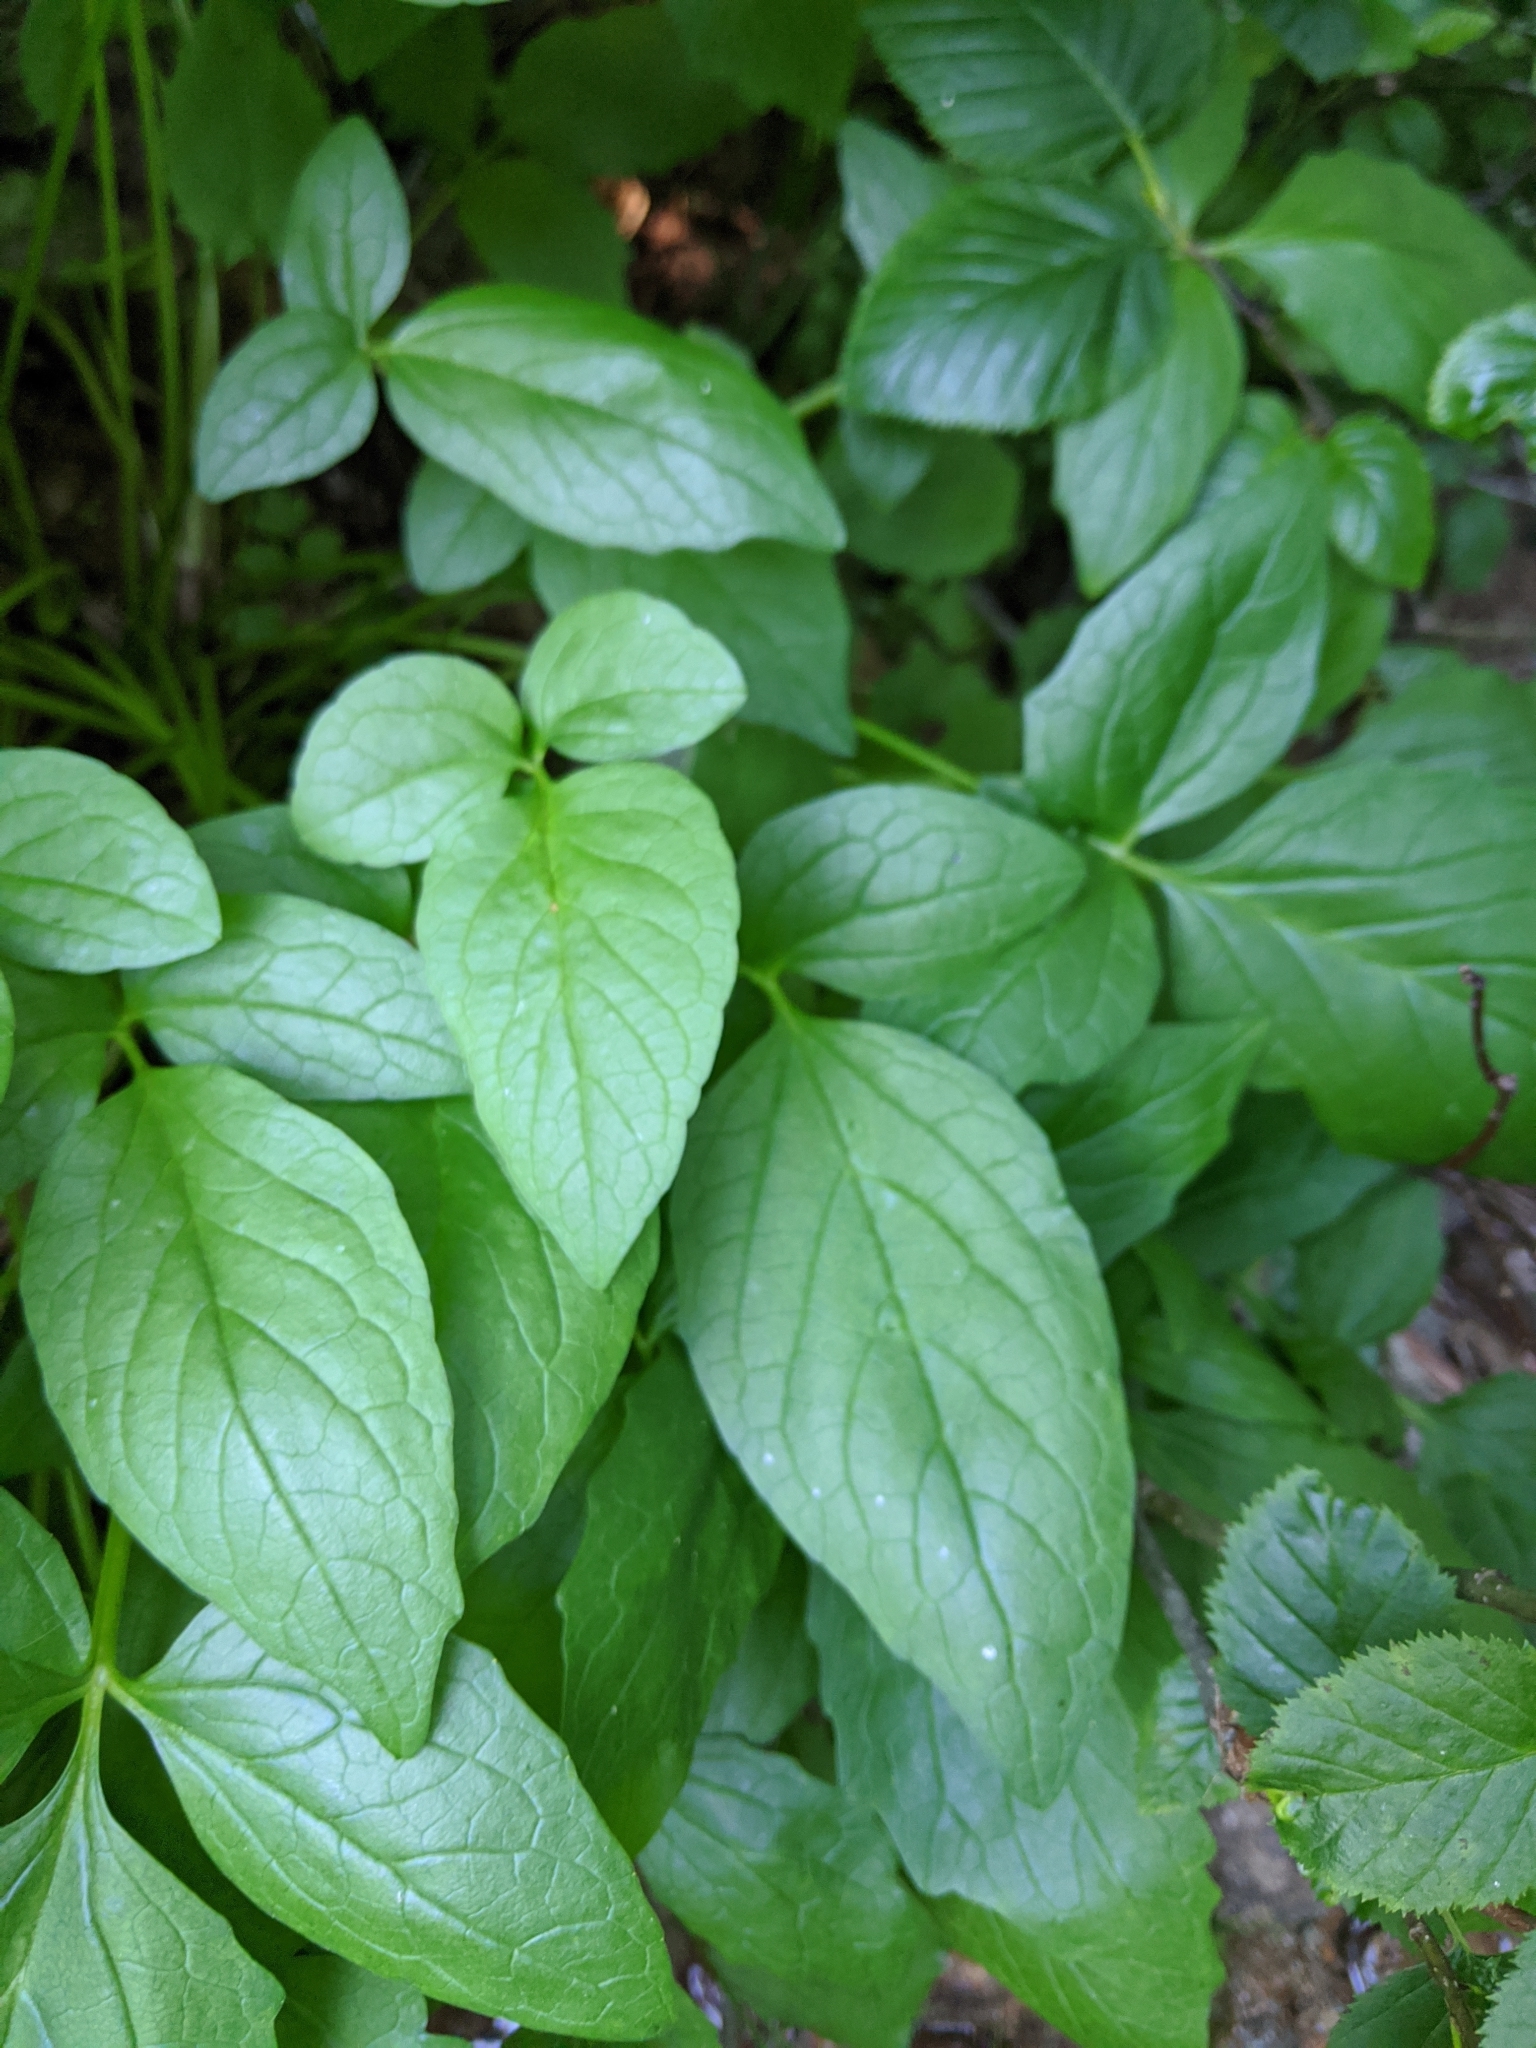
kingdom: Plantae
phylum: Tracheophyta
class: Magnoliopsida
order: Dipsacales
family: Caprifoliaceae
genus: Valeriana
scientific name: Valeriana sitchensis
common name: Pacific valerian
